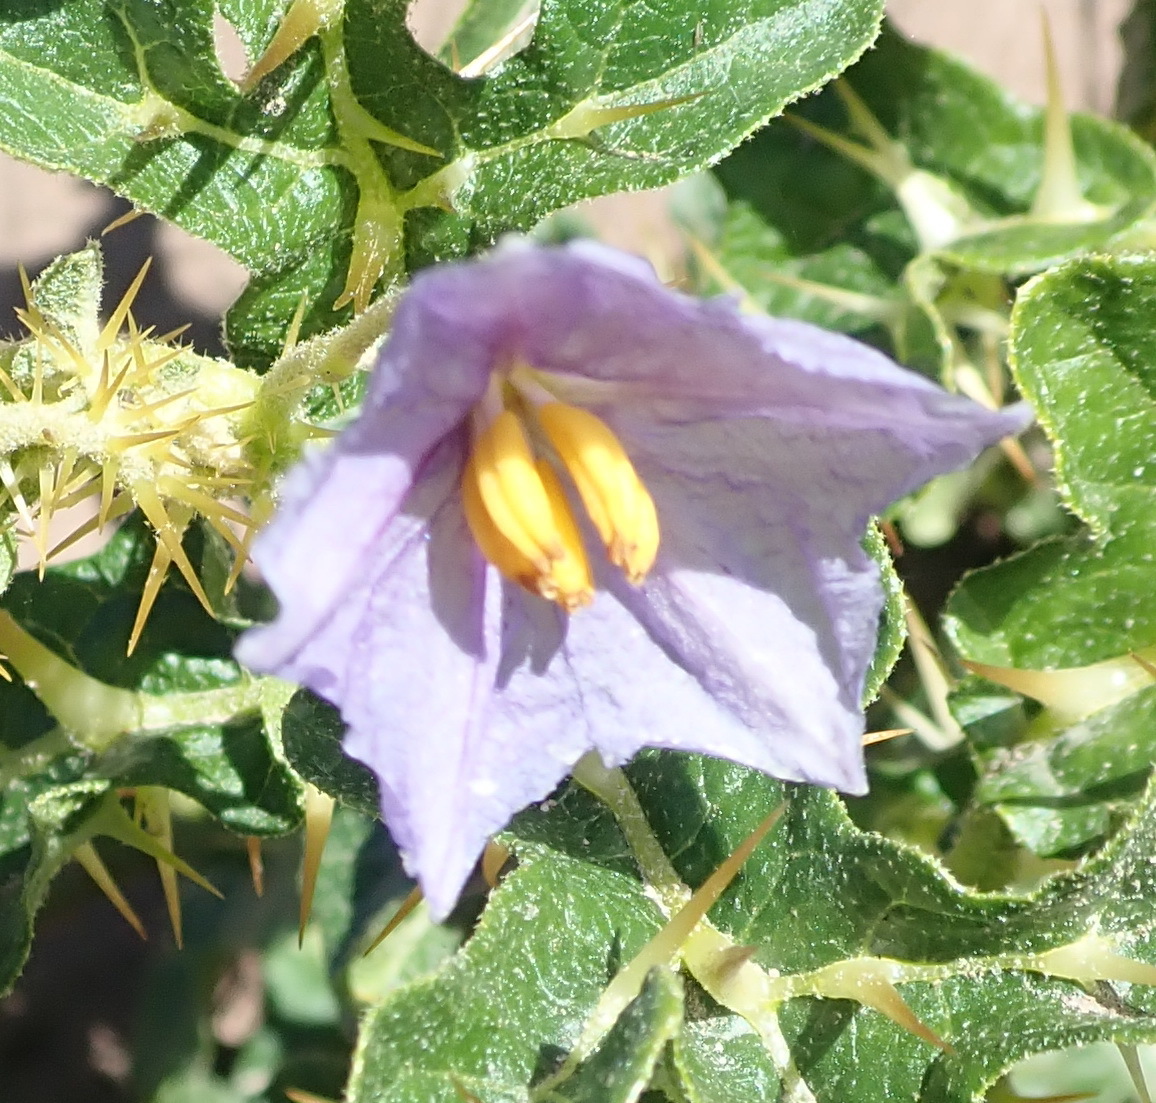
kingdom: Plantae
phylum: Tracheophyta
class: Magnoliopsida
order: Solanales
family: Solanaceae
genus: Solanum
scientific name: Solanum linnaeanum
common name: Nightshade
